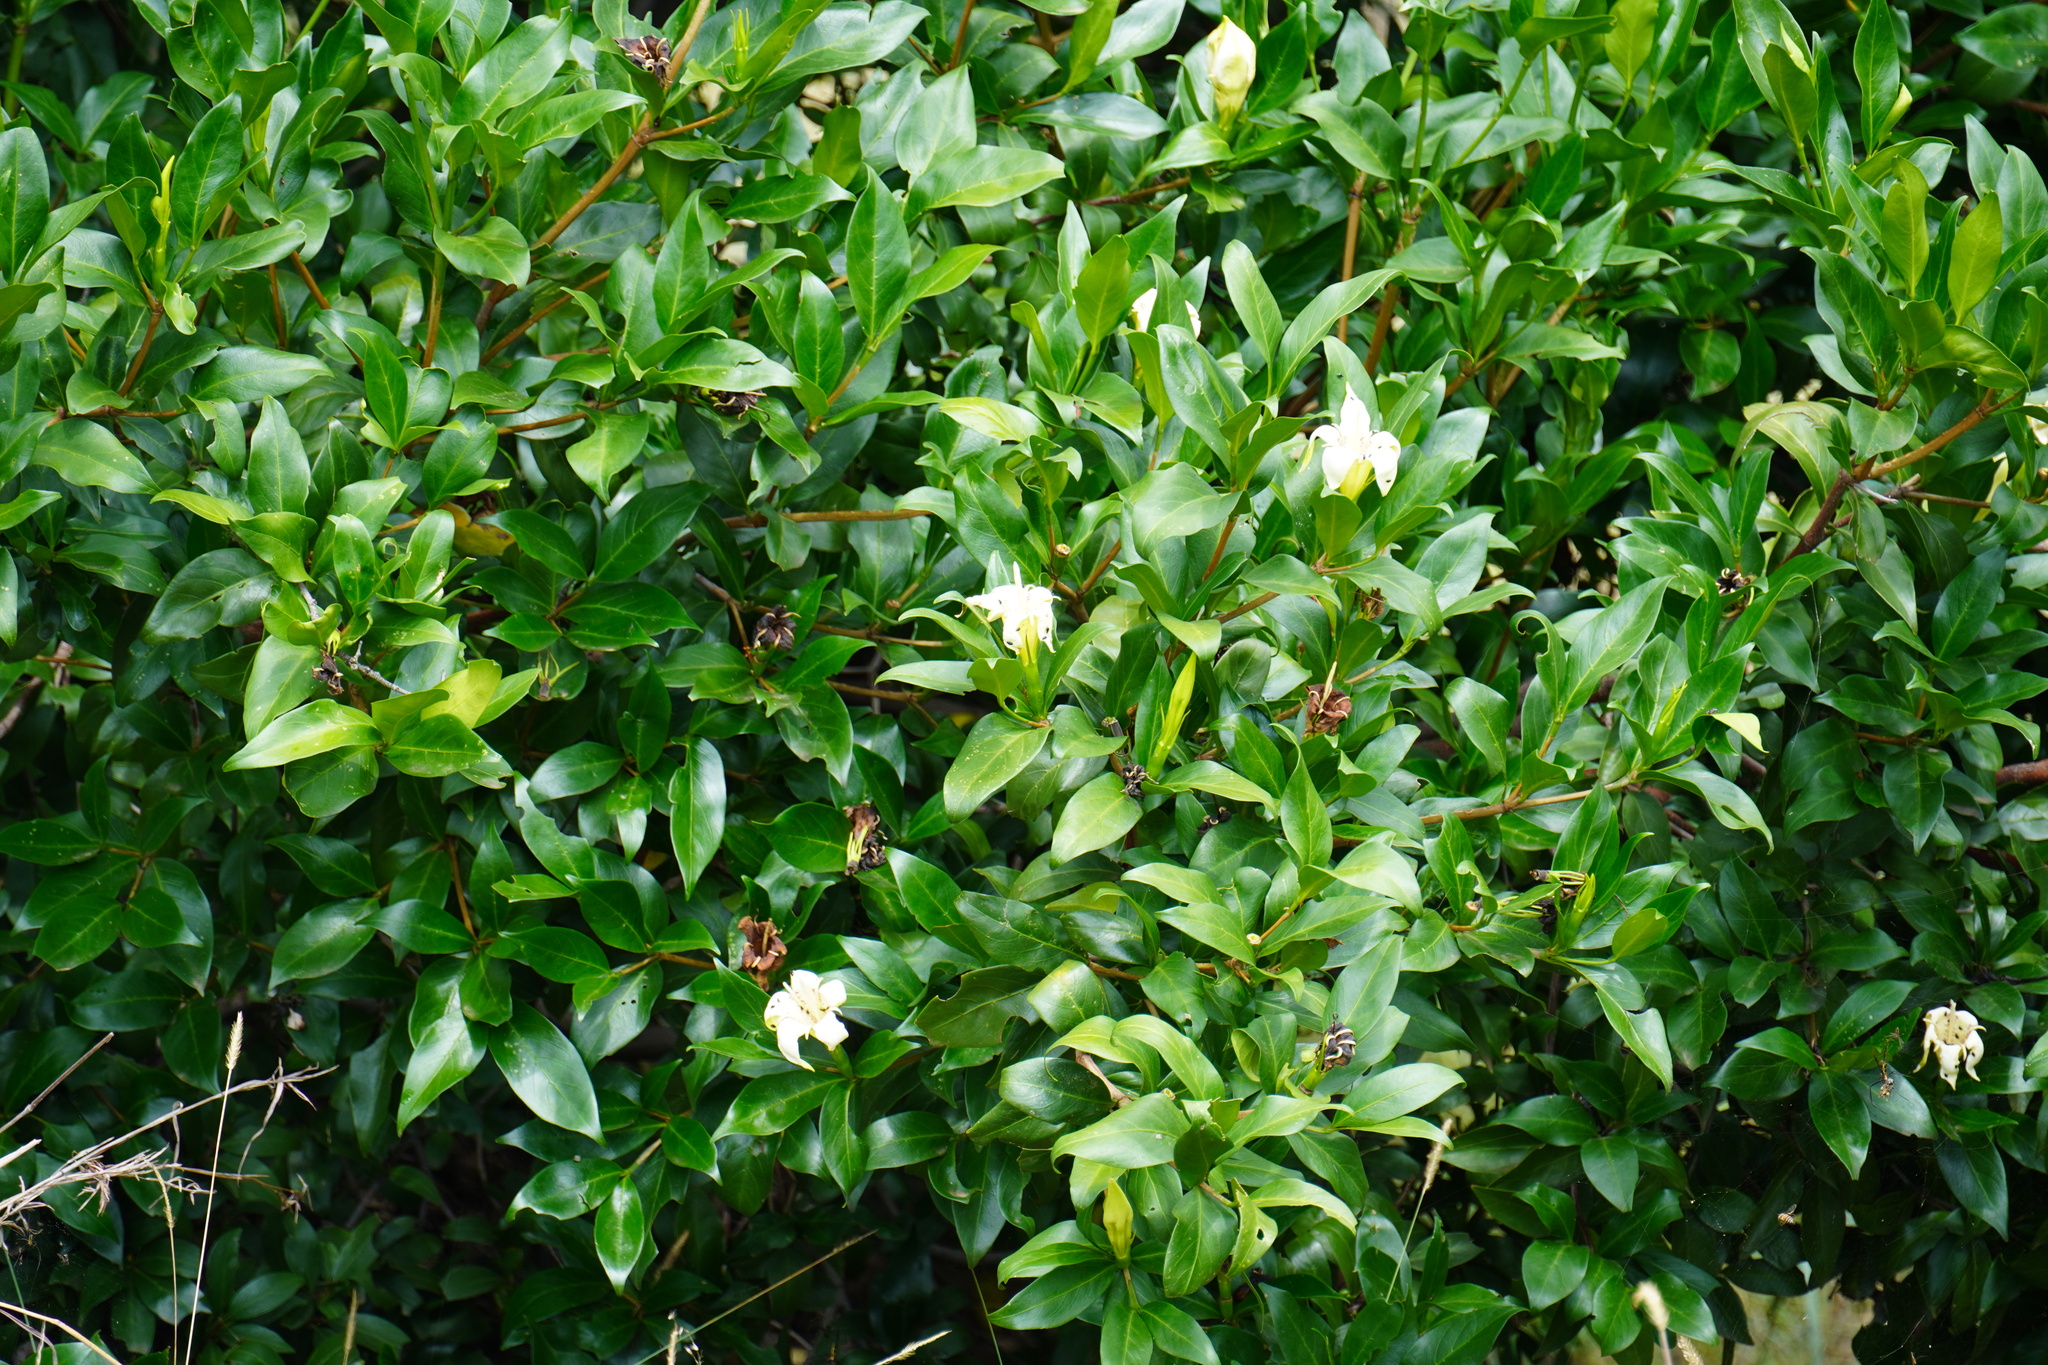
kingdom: Plantae
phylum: Tracheophyta
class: Magnoliopsida
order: Gentianales
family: Rubiaceae
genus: Rothmannia
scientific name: Rothmannia capensis
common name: Cape gardenia
